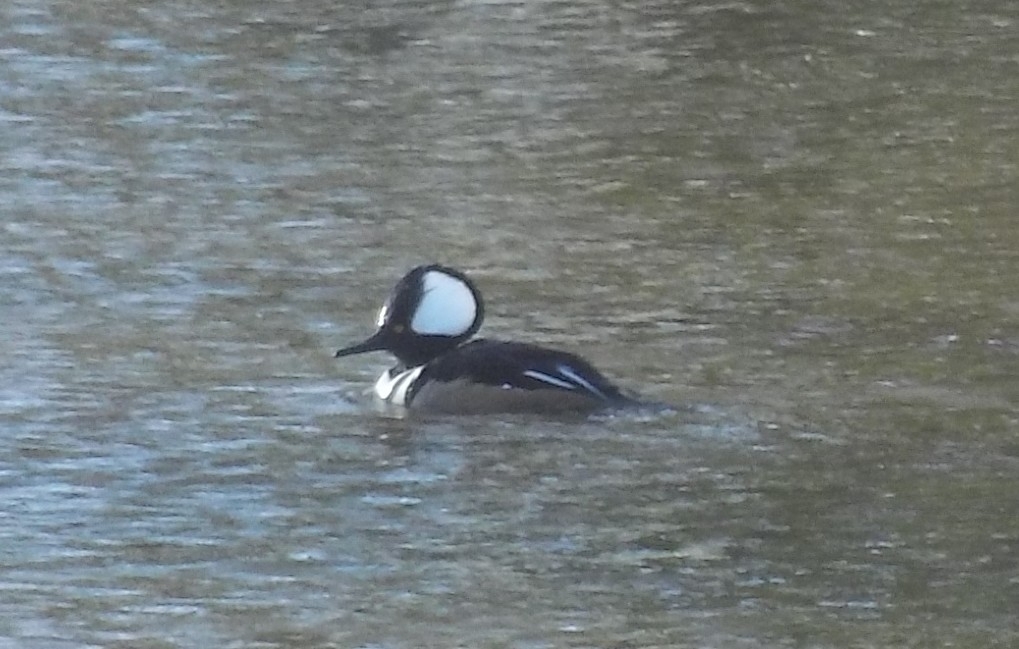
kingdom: Animalia
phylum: Chordata
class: Aves
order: Anseriformes
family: Anatidae
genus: Lophodytes
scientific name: Lophodytes cucullatus
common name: Hooded merganser
